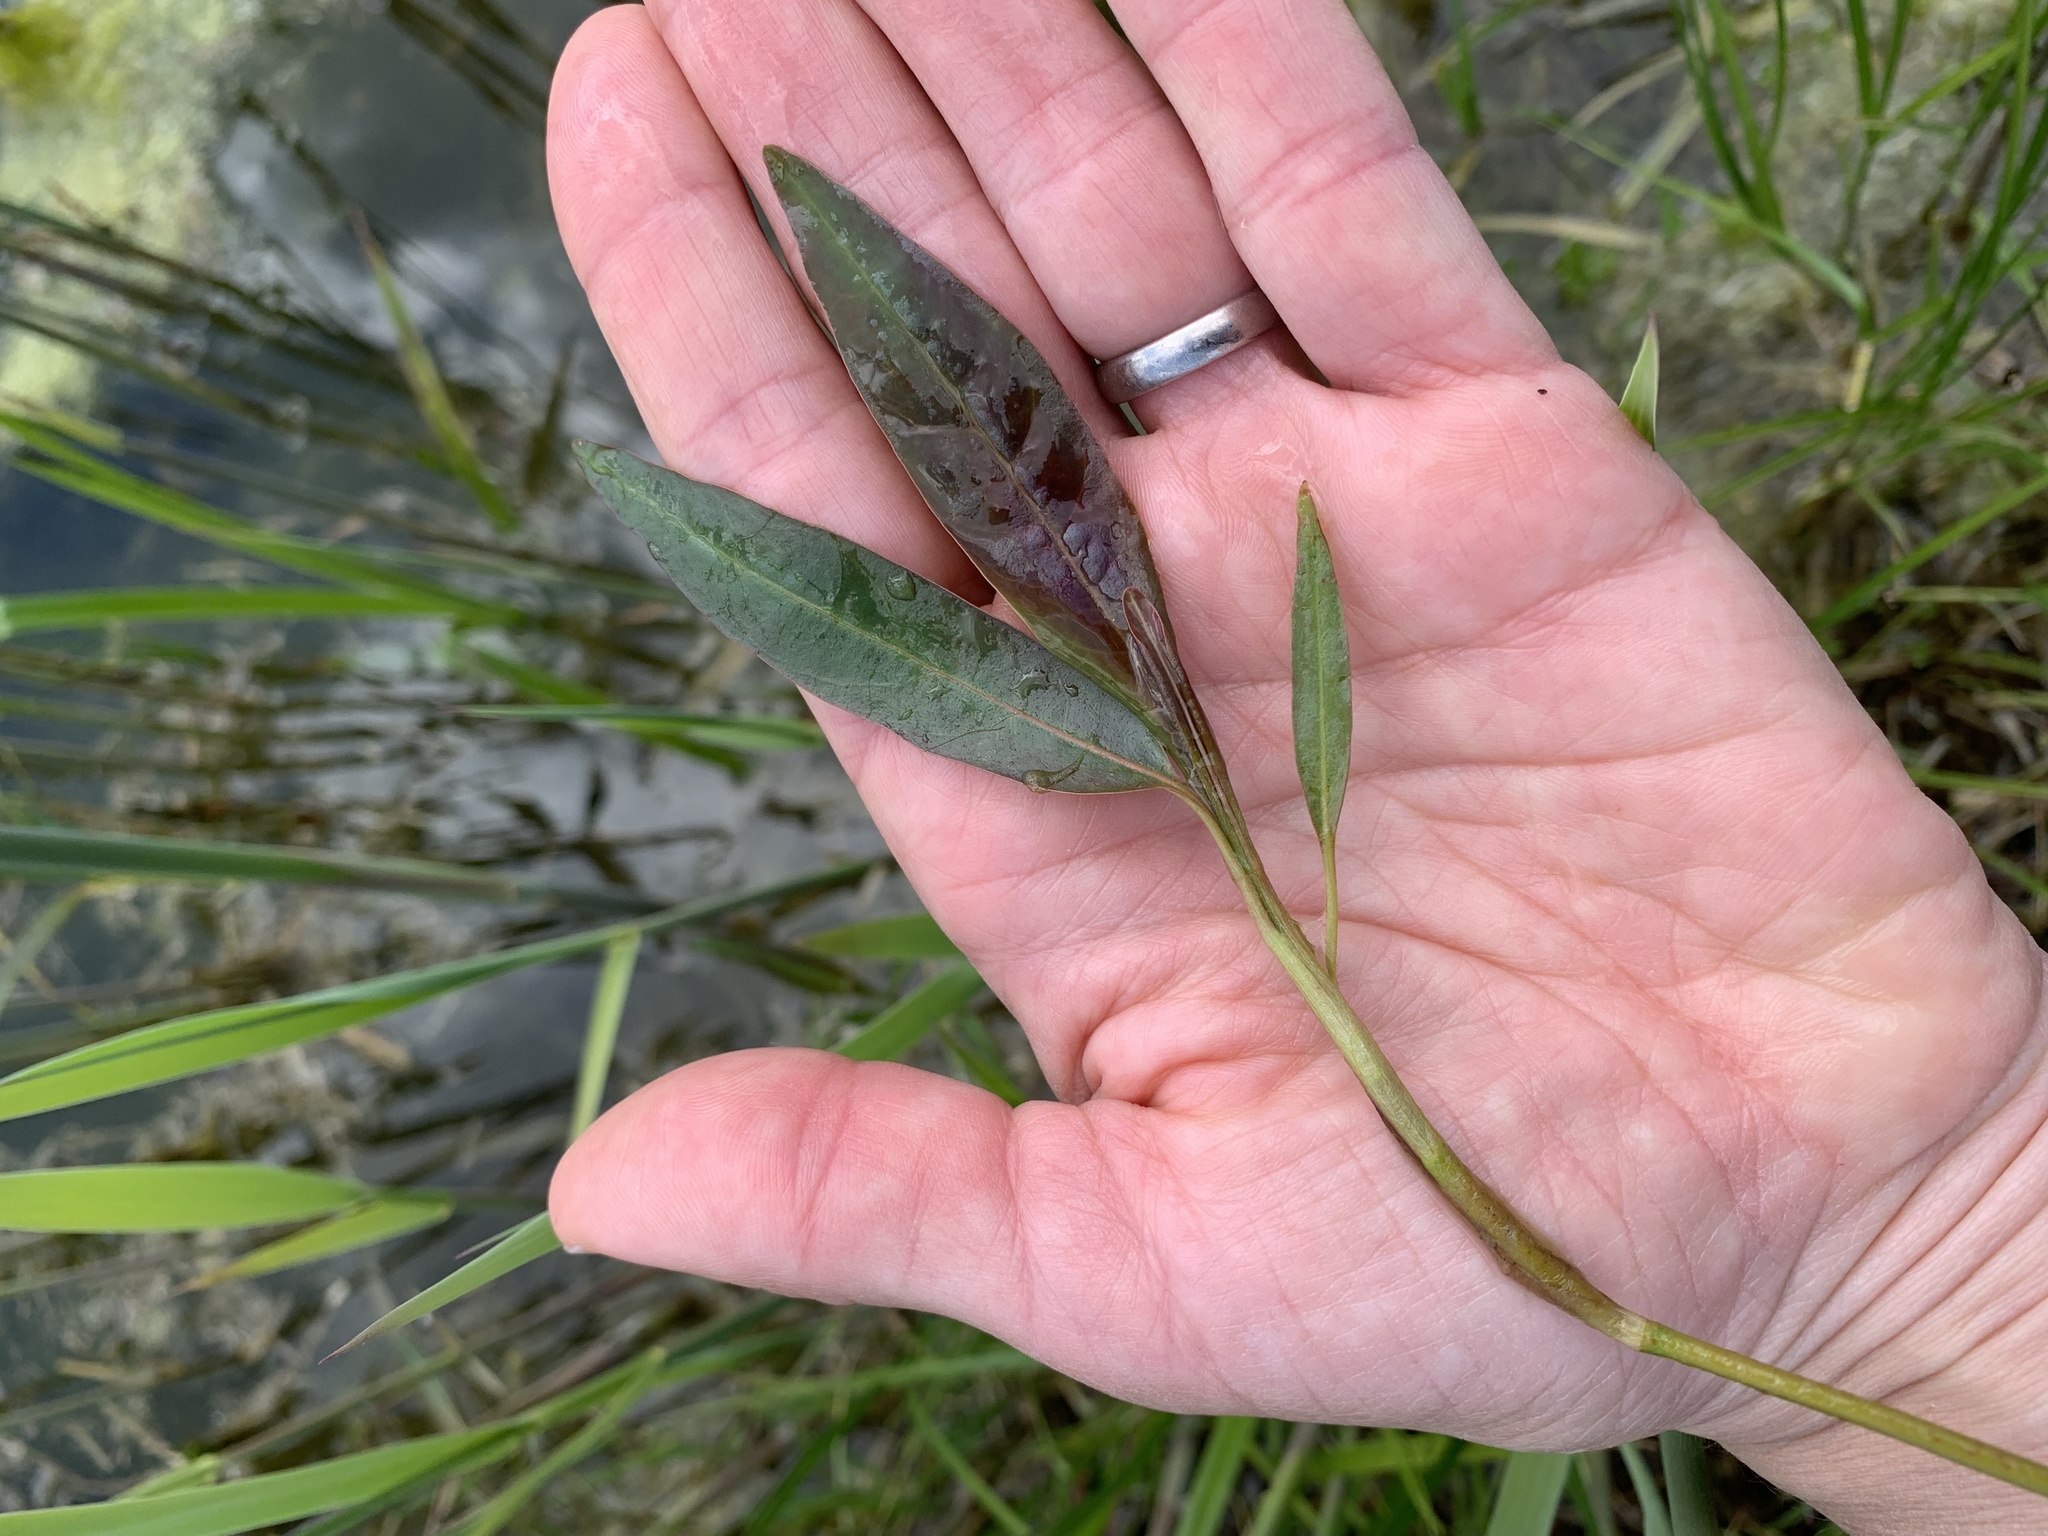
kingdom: Plantae
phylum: Tracheophyta
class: Magnoliopsida
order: Caryophyllales
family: Polygonaceae
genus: Persicaria
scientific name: Persicaria amphibia
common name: Amphibious bistort
